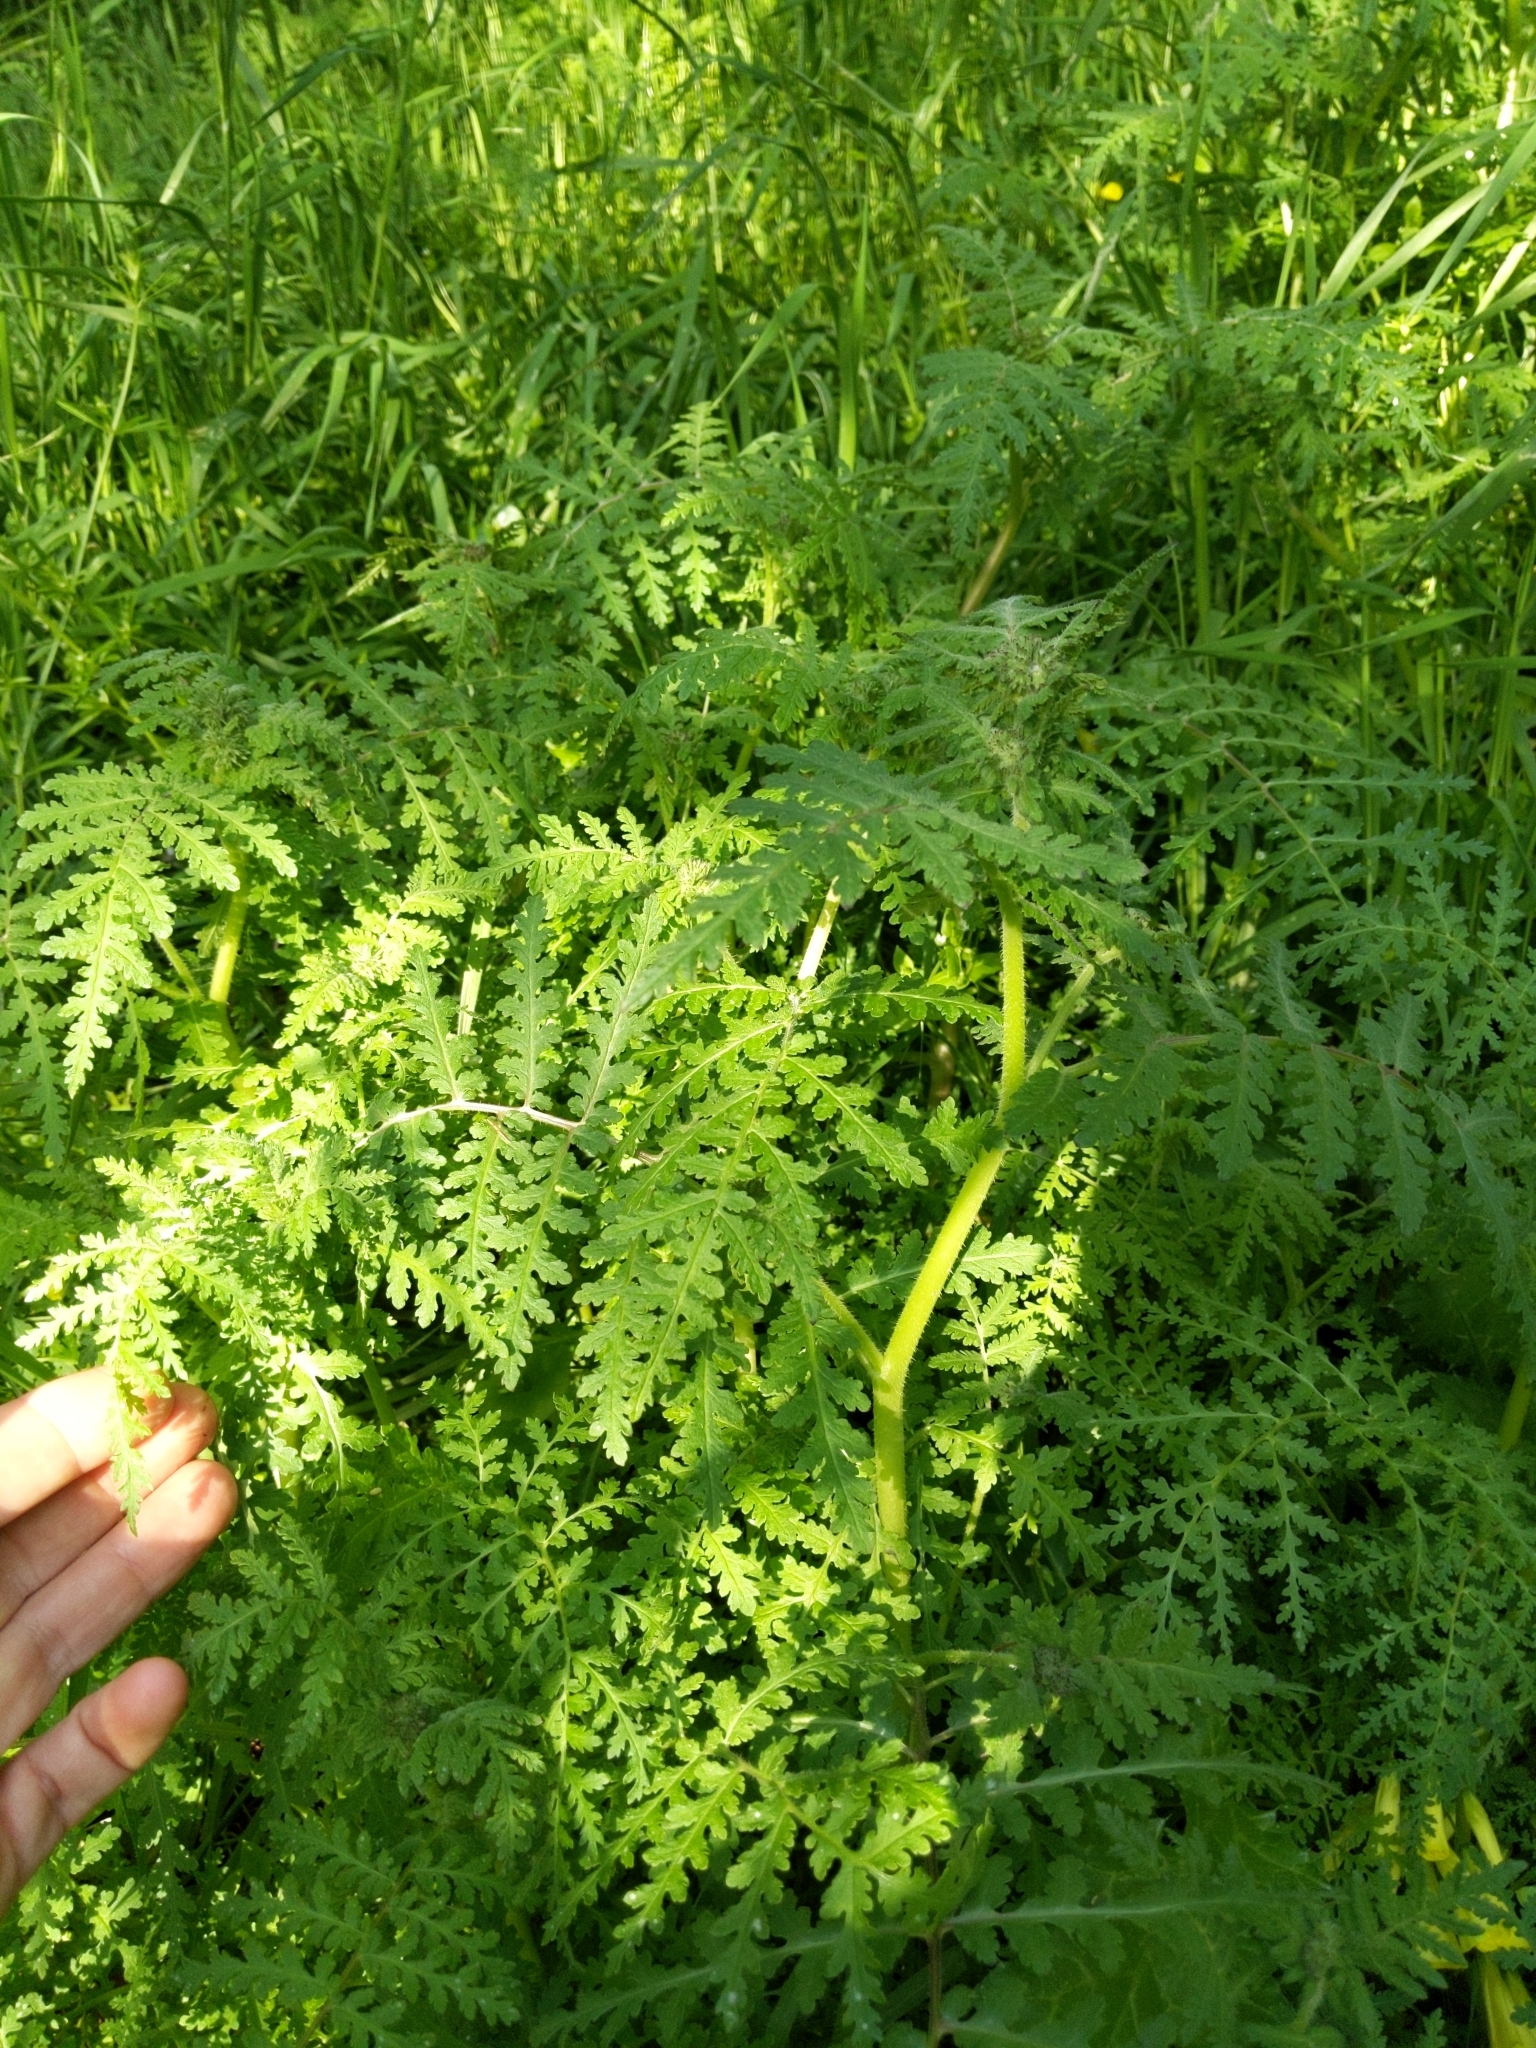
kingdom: Plantae
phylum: Tracheophyta
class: Magnoliopsida
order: Boraginales
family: Hydrophyllaceae
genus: Phacelia
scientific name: Phacelia distans
